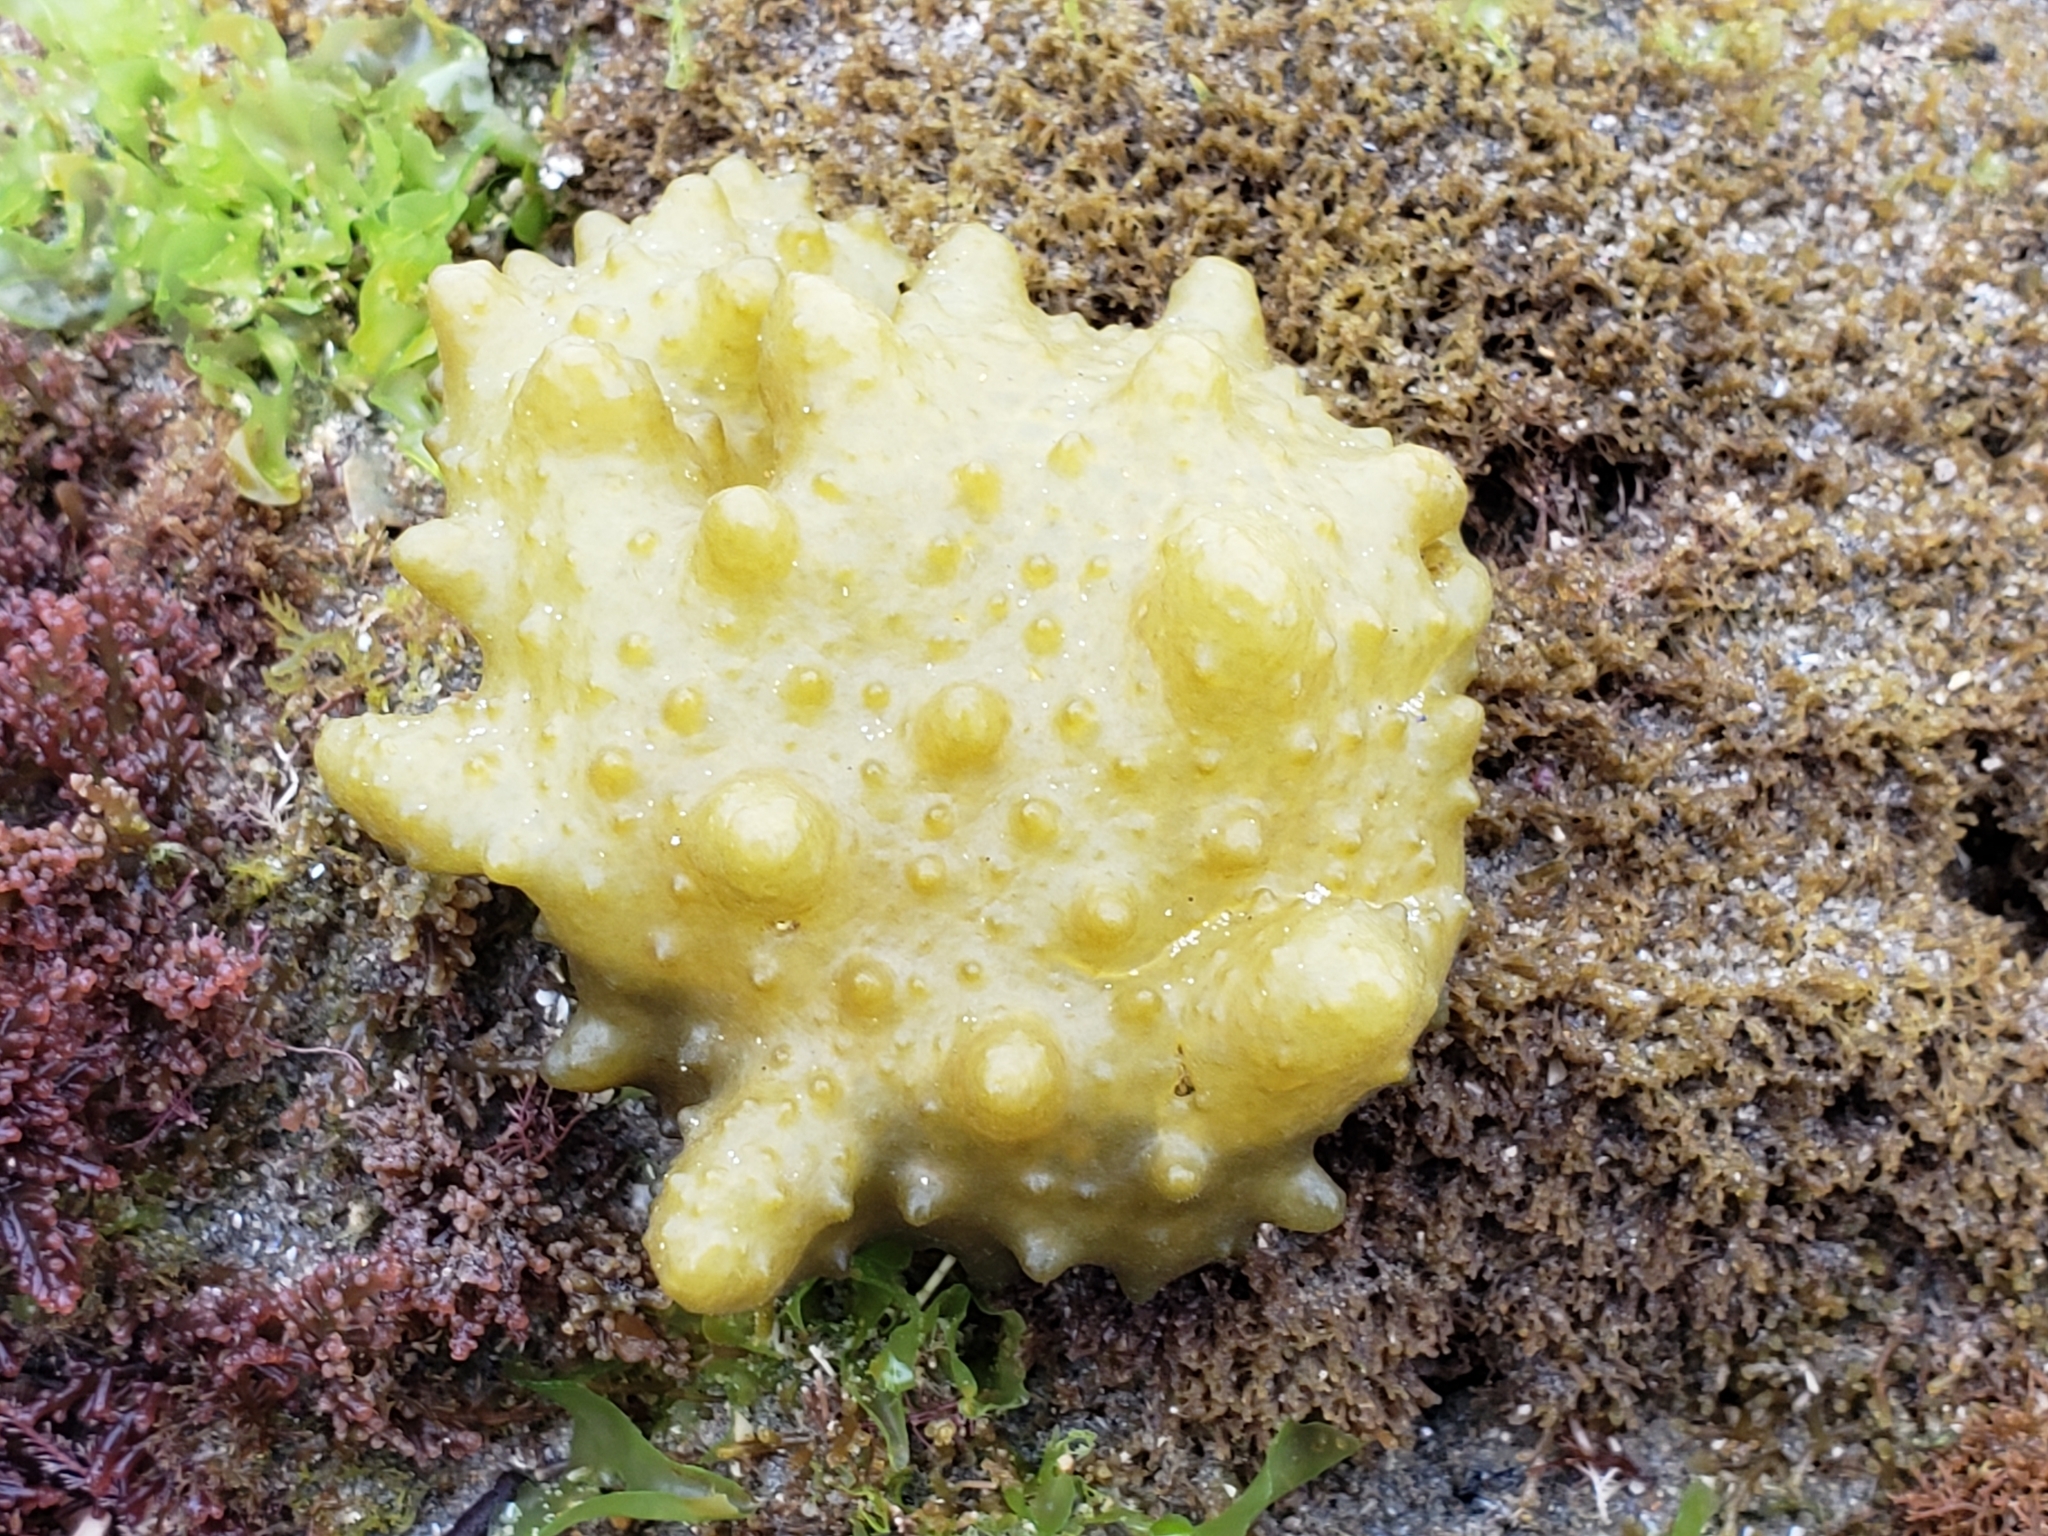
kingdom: Chromista
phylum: Ochrophyta
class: Phaeophyceae
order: Scytosiphonales
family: Scytosiphonaceae
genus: Colpomenia
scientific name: Colpomenia
